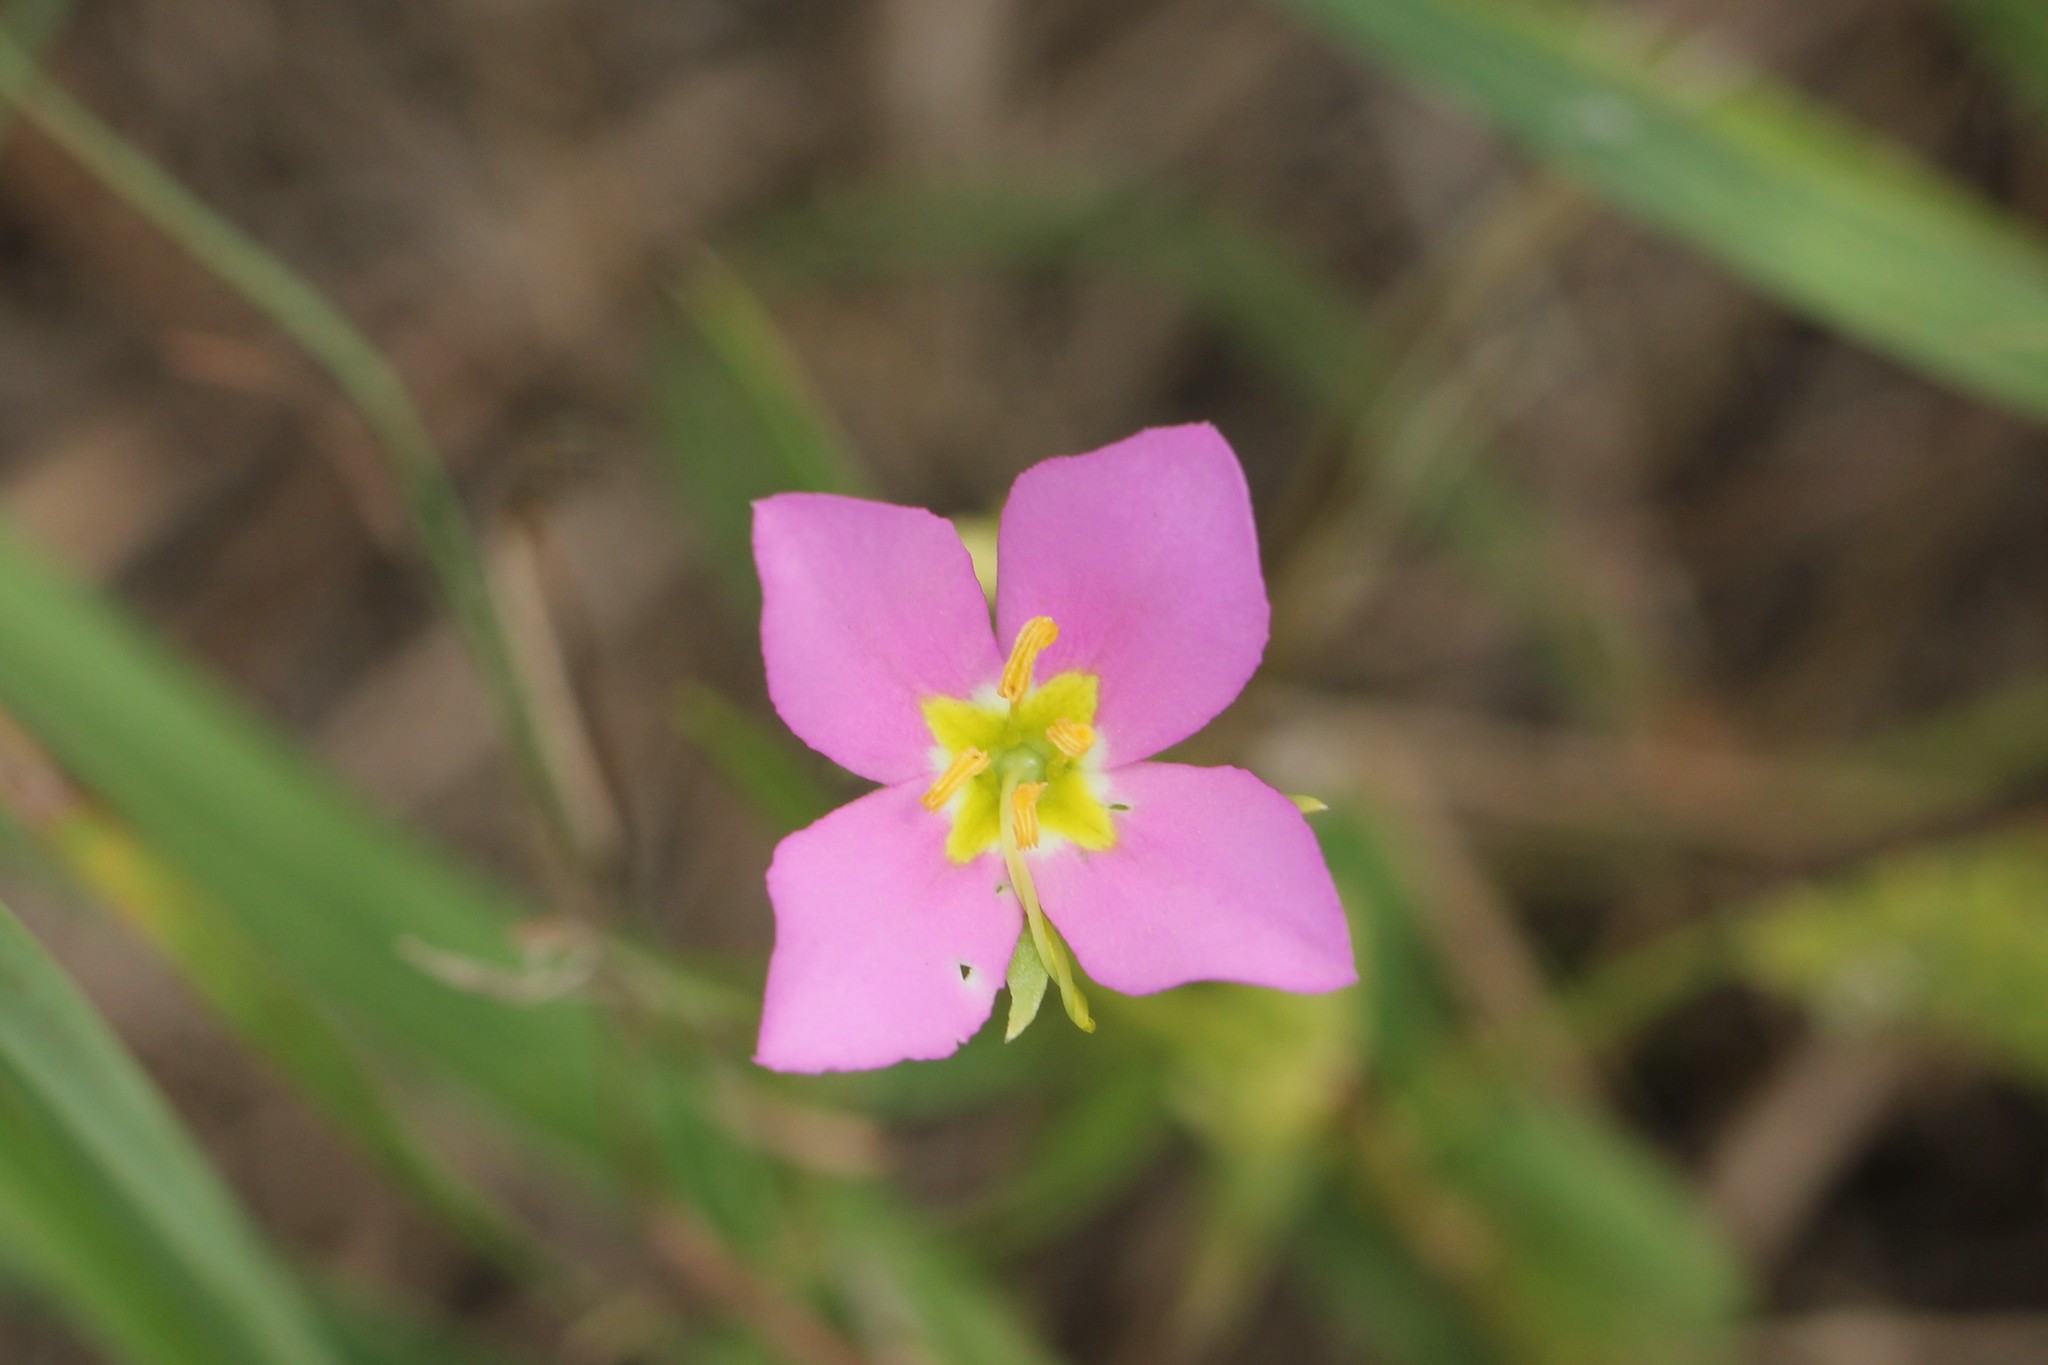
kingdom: Plantae
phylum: Tracheophyta
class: Magnoliopsida
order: Gentianales
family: Gentianaceae
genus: Sabatia
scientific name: Sabatia campestris
